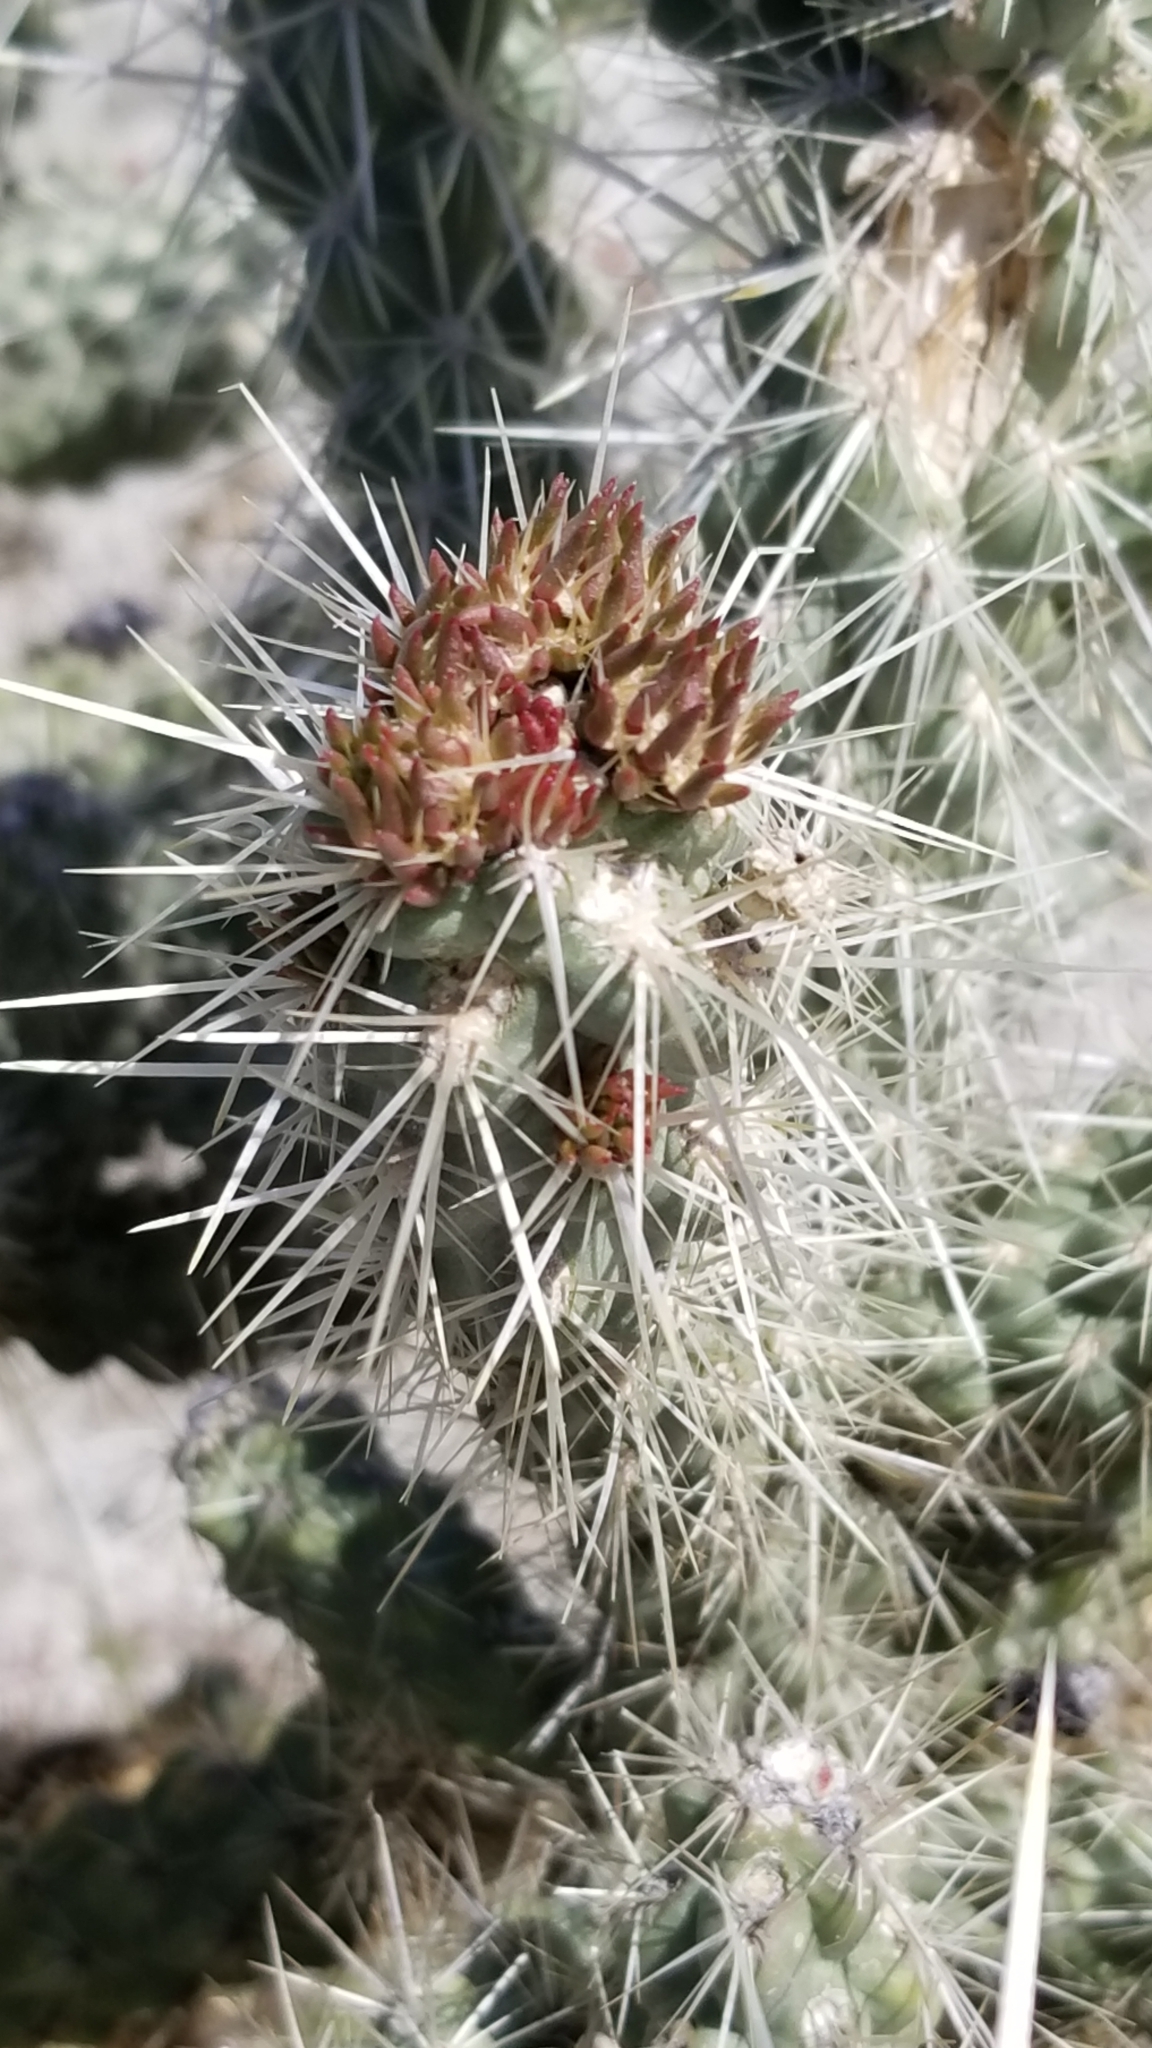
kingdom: Plantae
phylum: Tracheophyta
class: Magnoliopsida
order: Caryophyllales
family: Cactaceae
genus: Cylindropuntia
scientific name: Cylindropuntia echinocarpa
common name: Ground cholla
